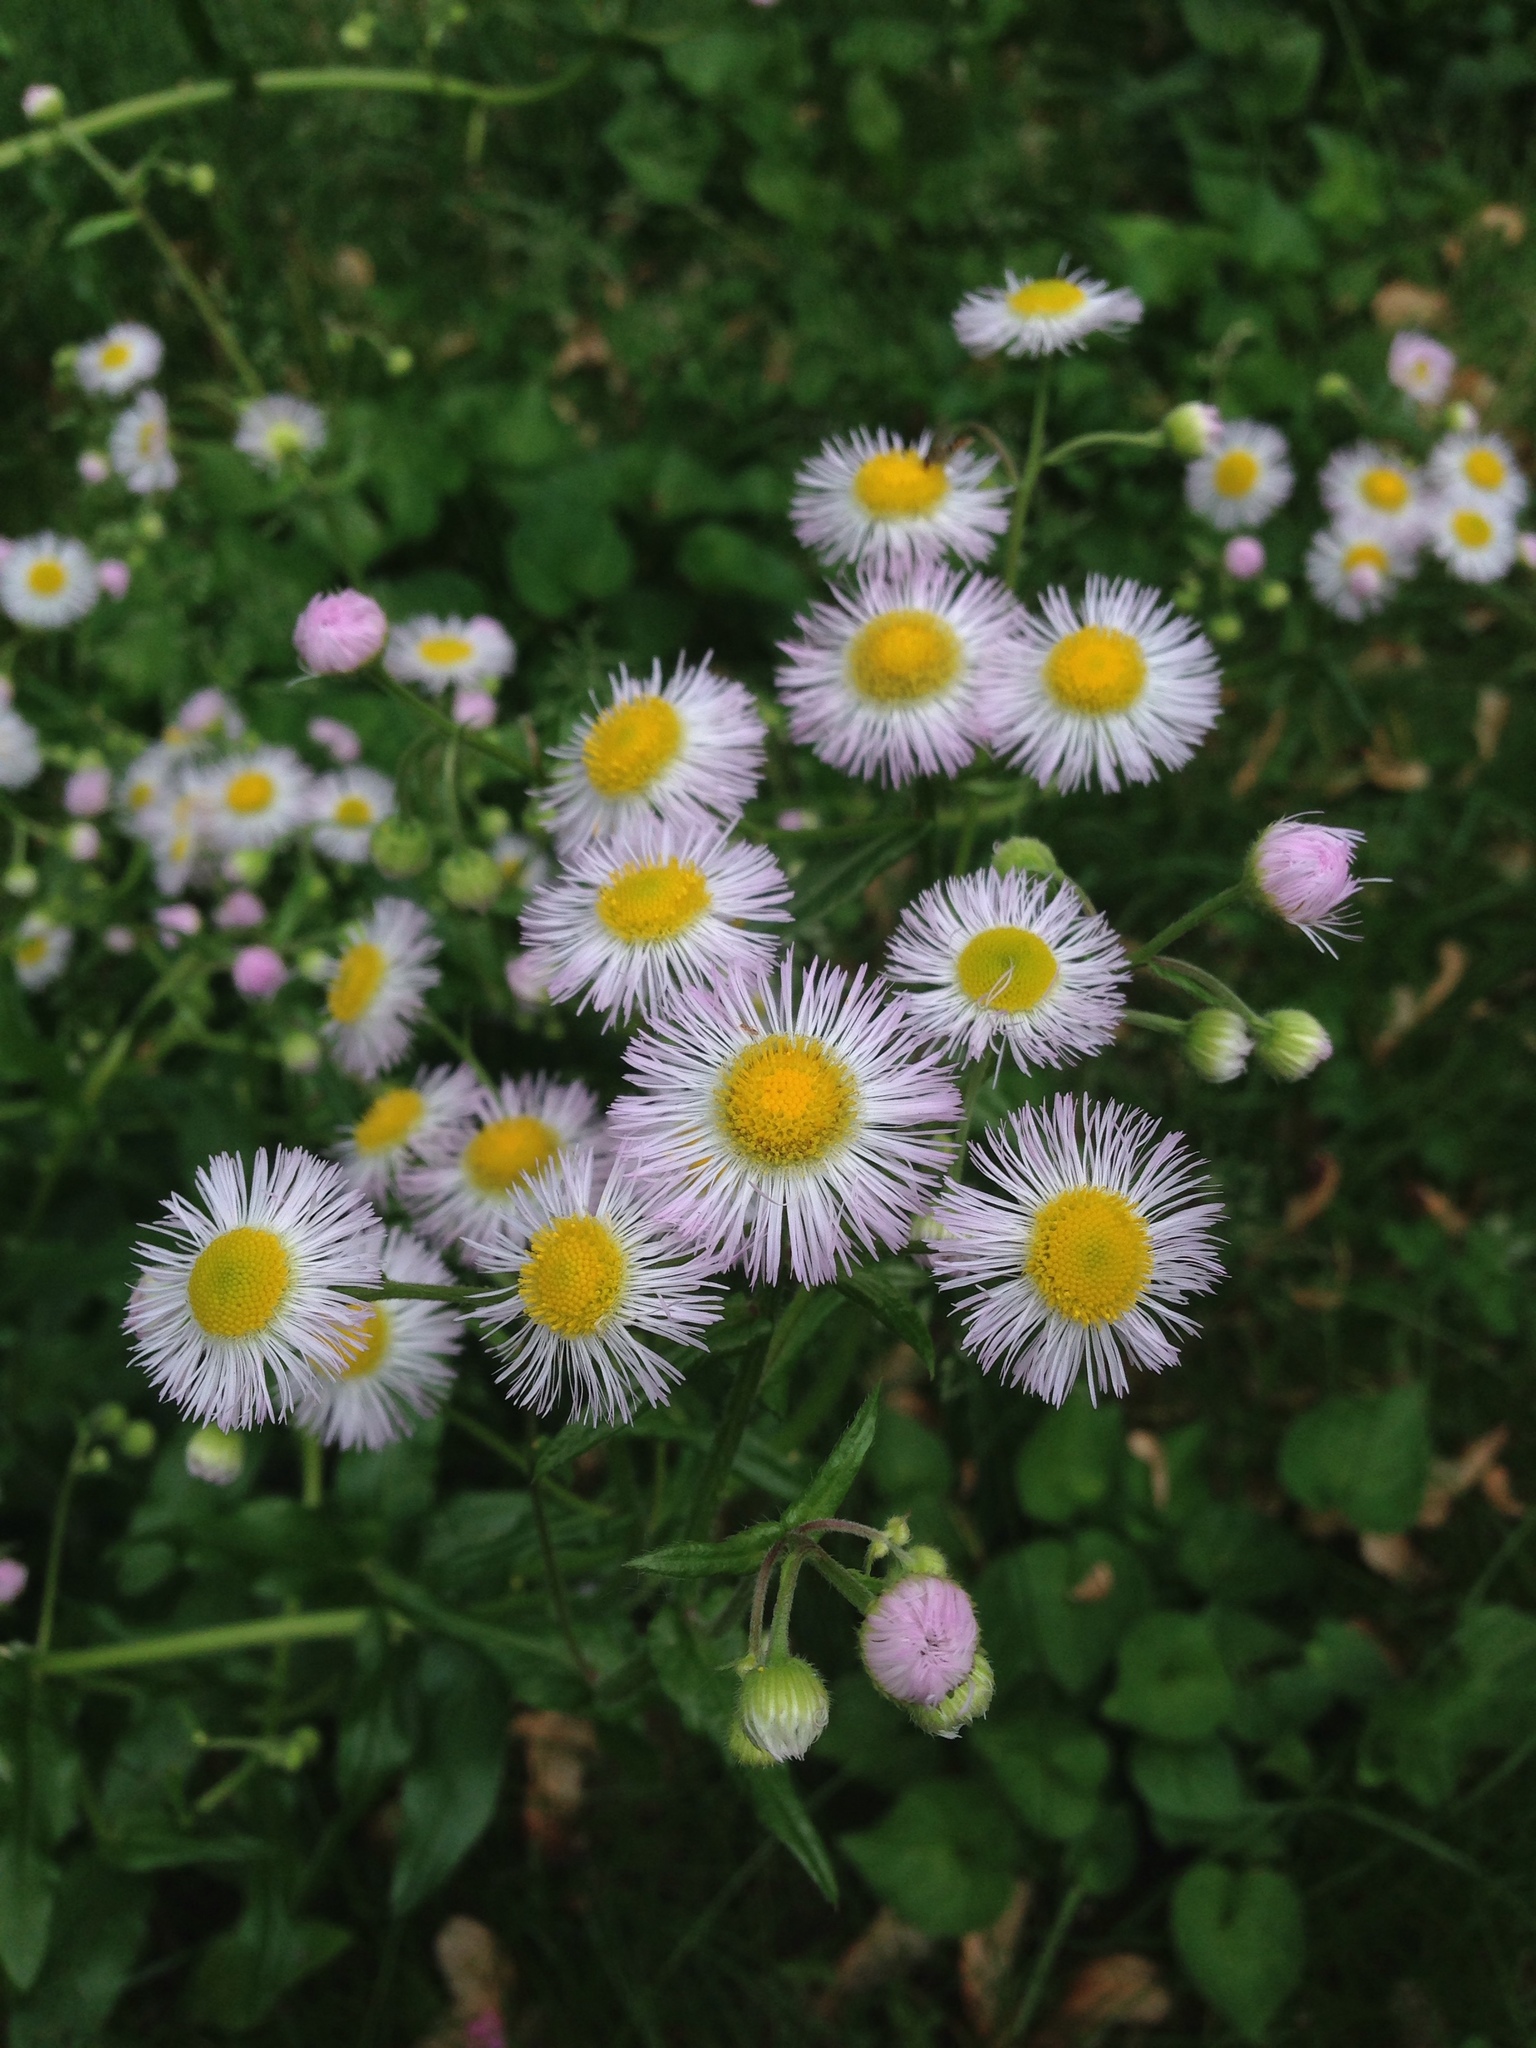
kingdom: Plantae
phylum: Tracheophyta
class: Magnoliopsida
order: Asterales
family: Asteraceae
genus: Erigeron
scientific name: Erigeron philadelphicus
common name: Robin's-plantain
